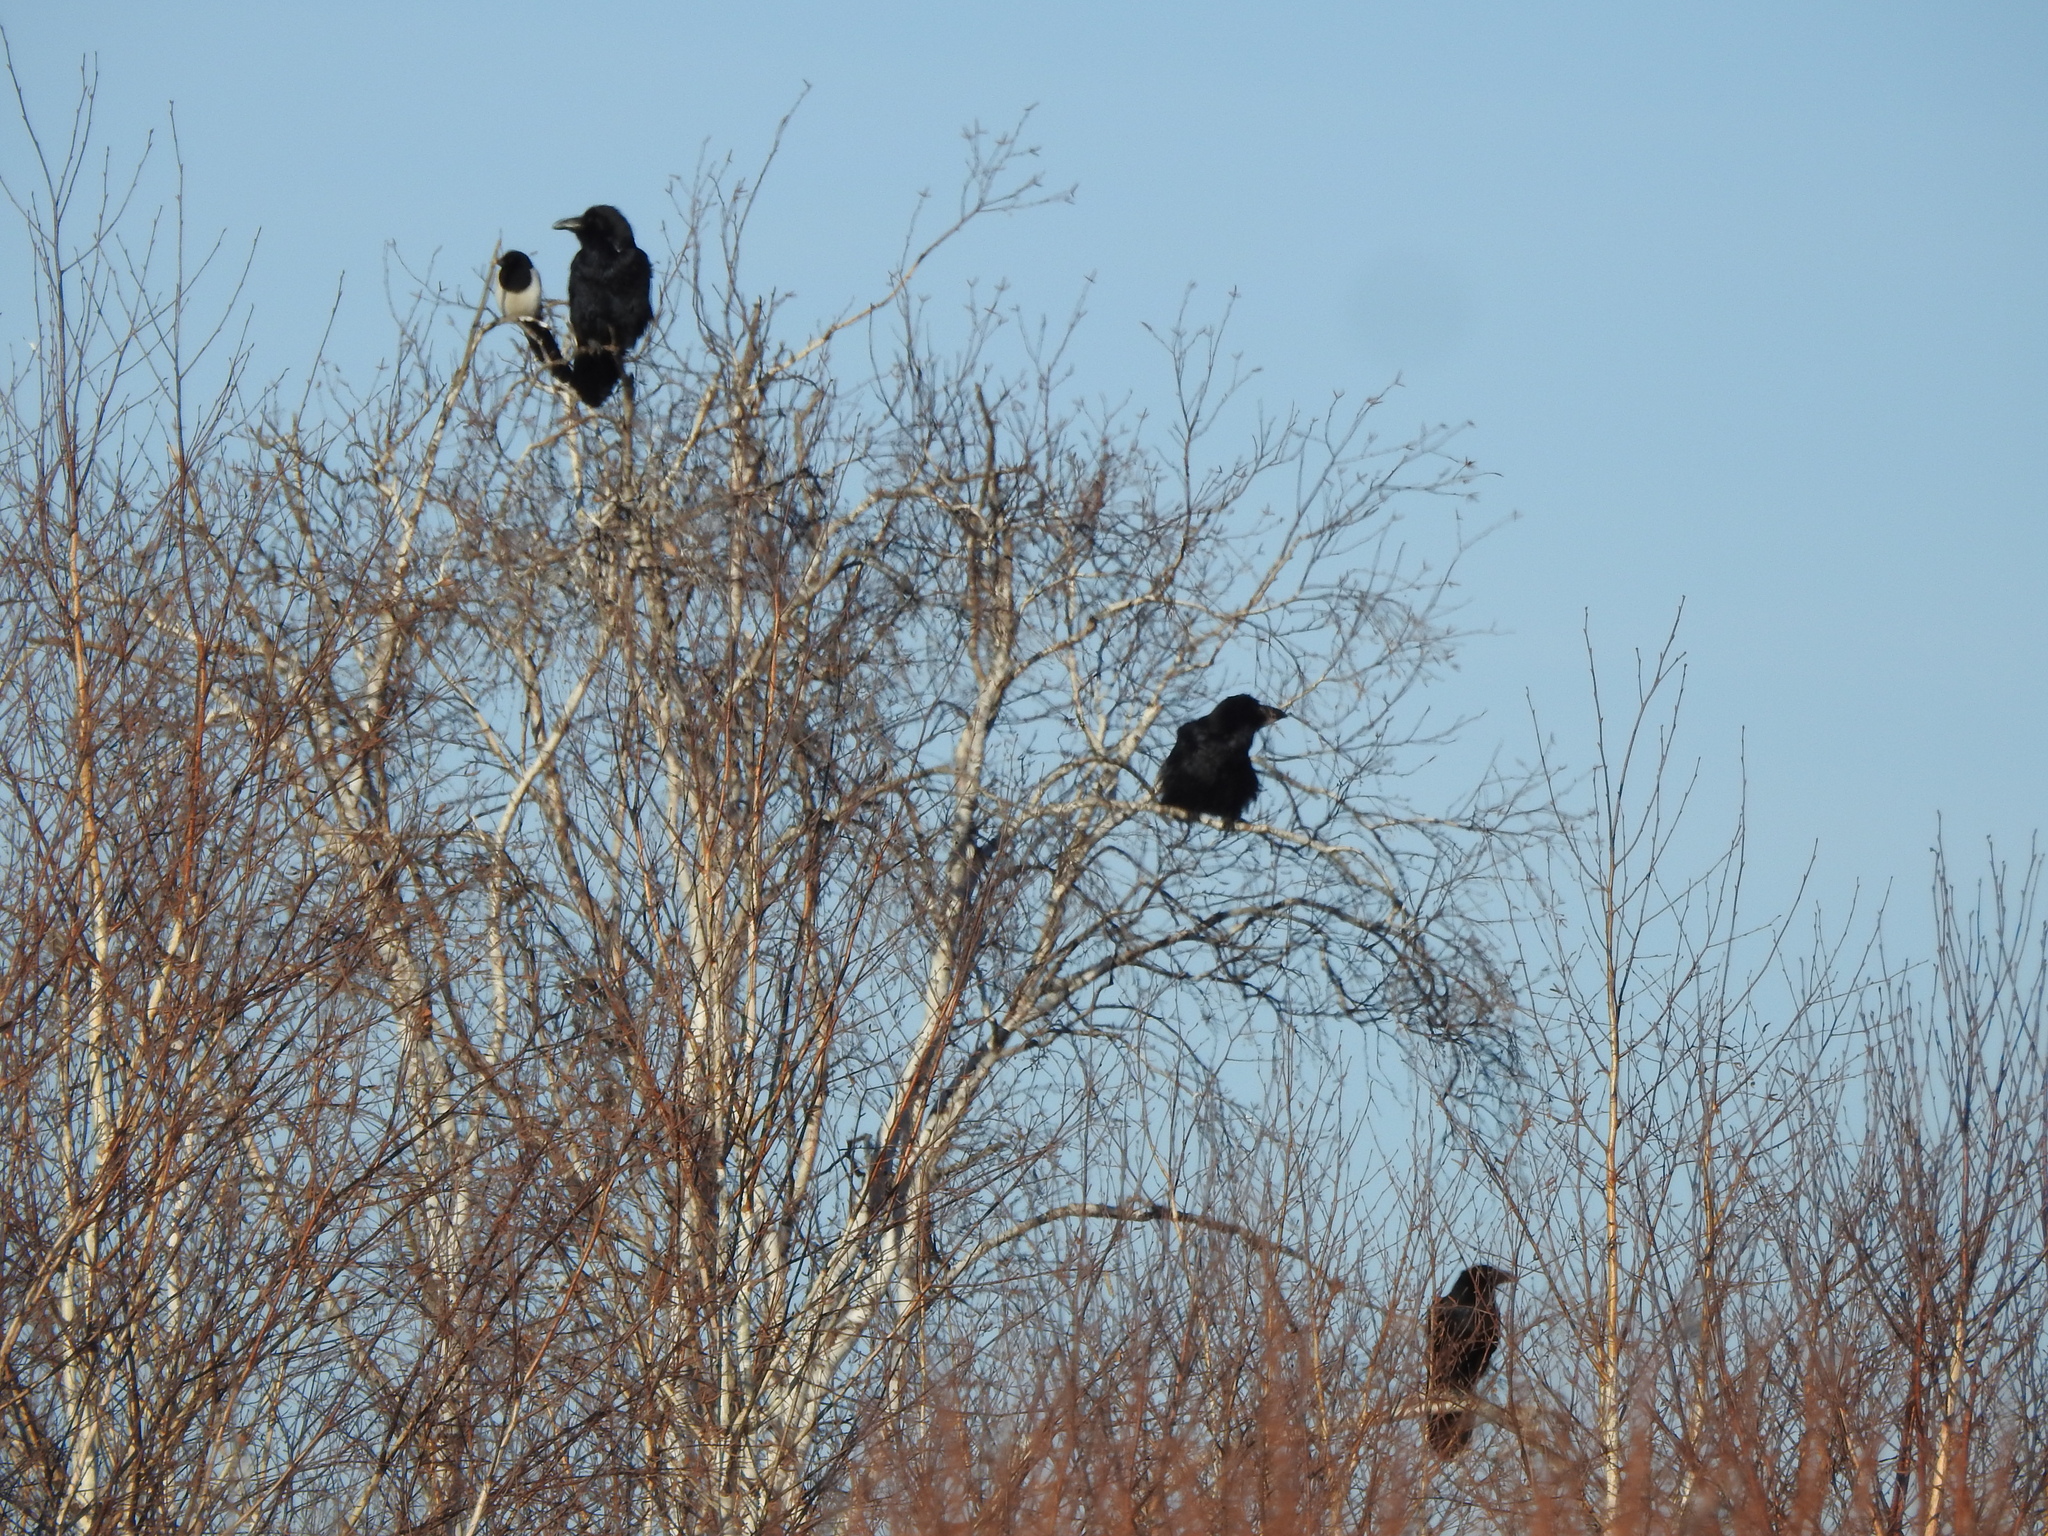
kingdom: Animalia
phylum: Chordata
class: Aves
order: Passeriformes
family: Corvidae
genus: Corvus
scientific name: Corvus corax
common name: Common raven
